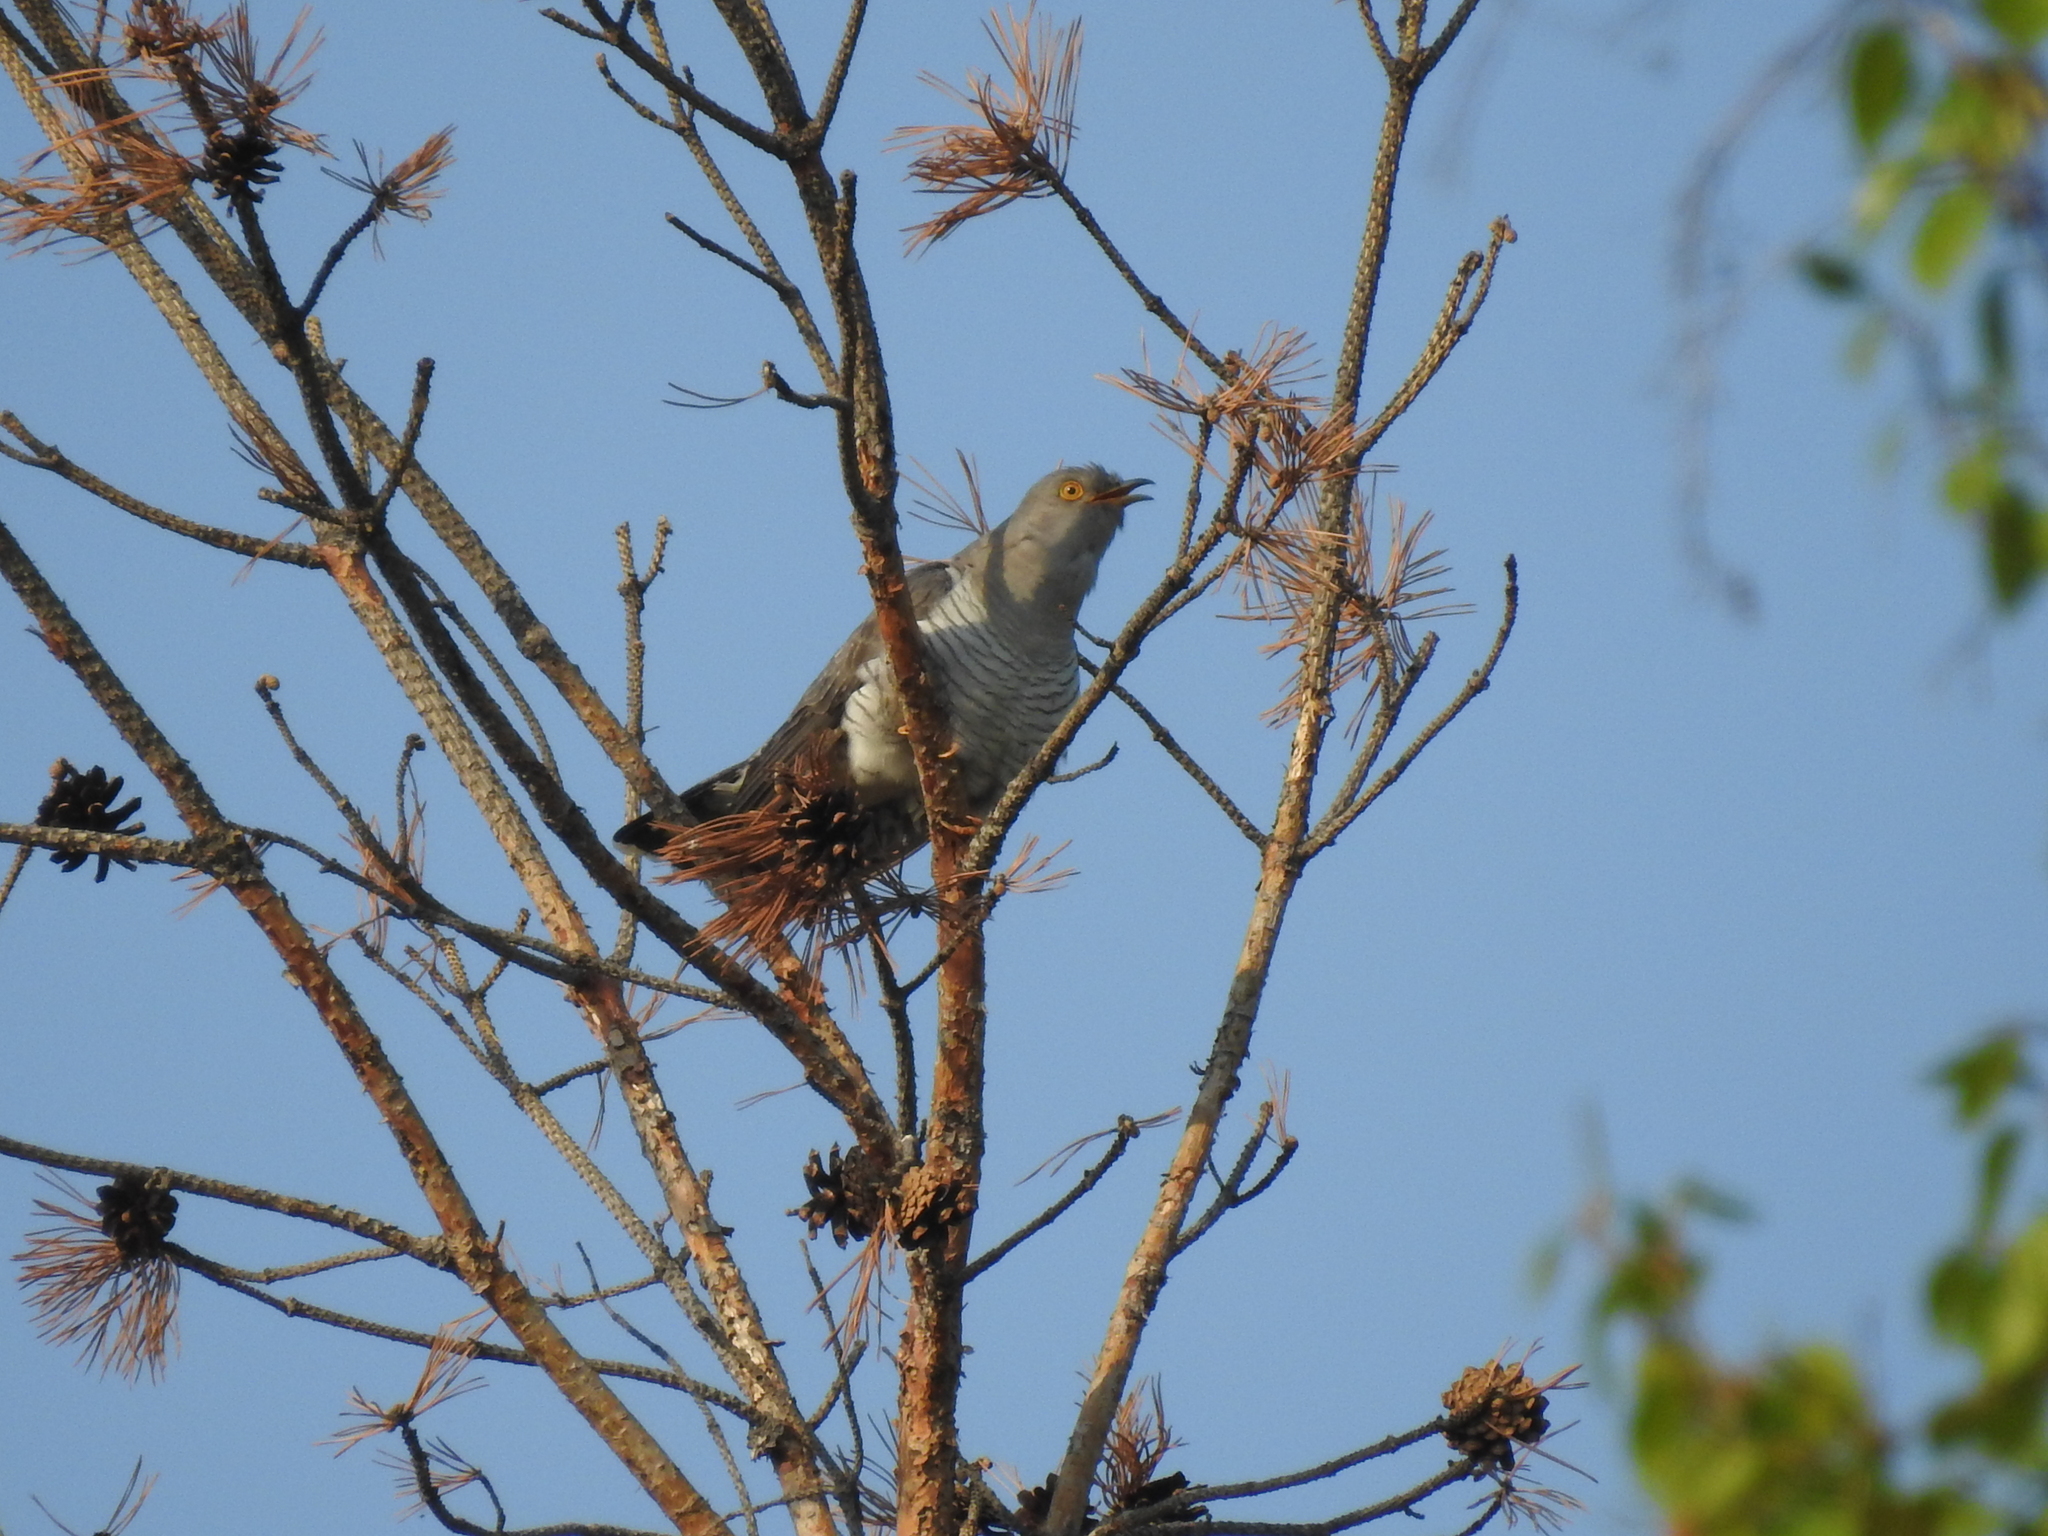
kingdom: Animalia
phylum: Chordata
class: Aves
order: Cuculiformes
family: Cuculidae
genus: Cuculus
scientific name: Cuculus canorus
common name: Common cuckoo
